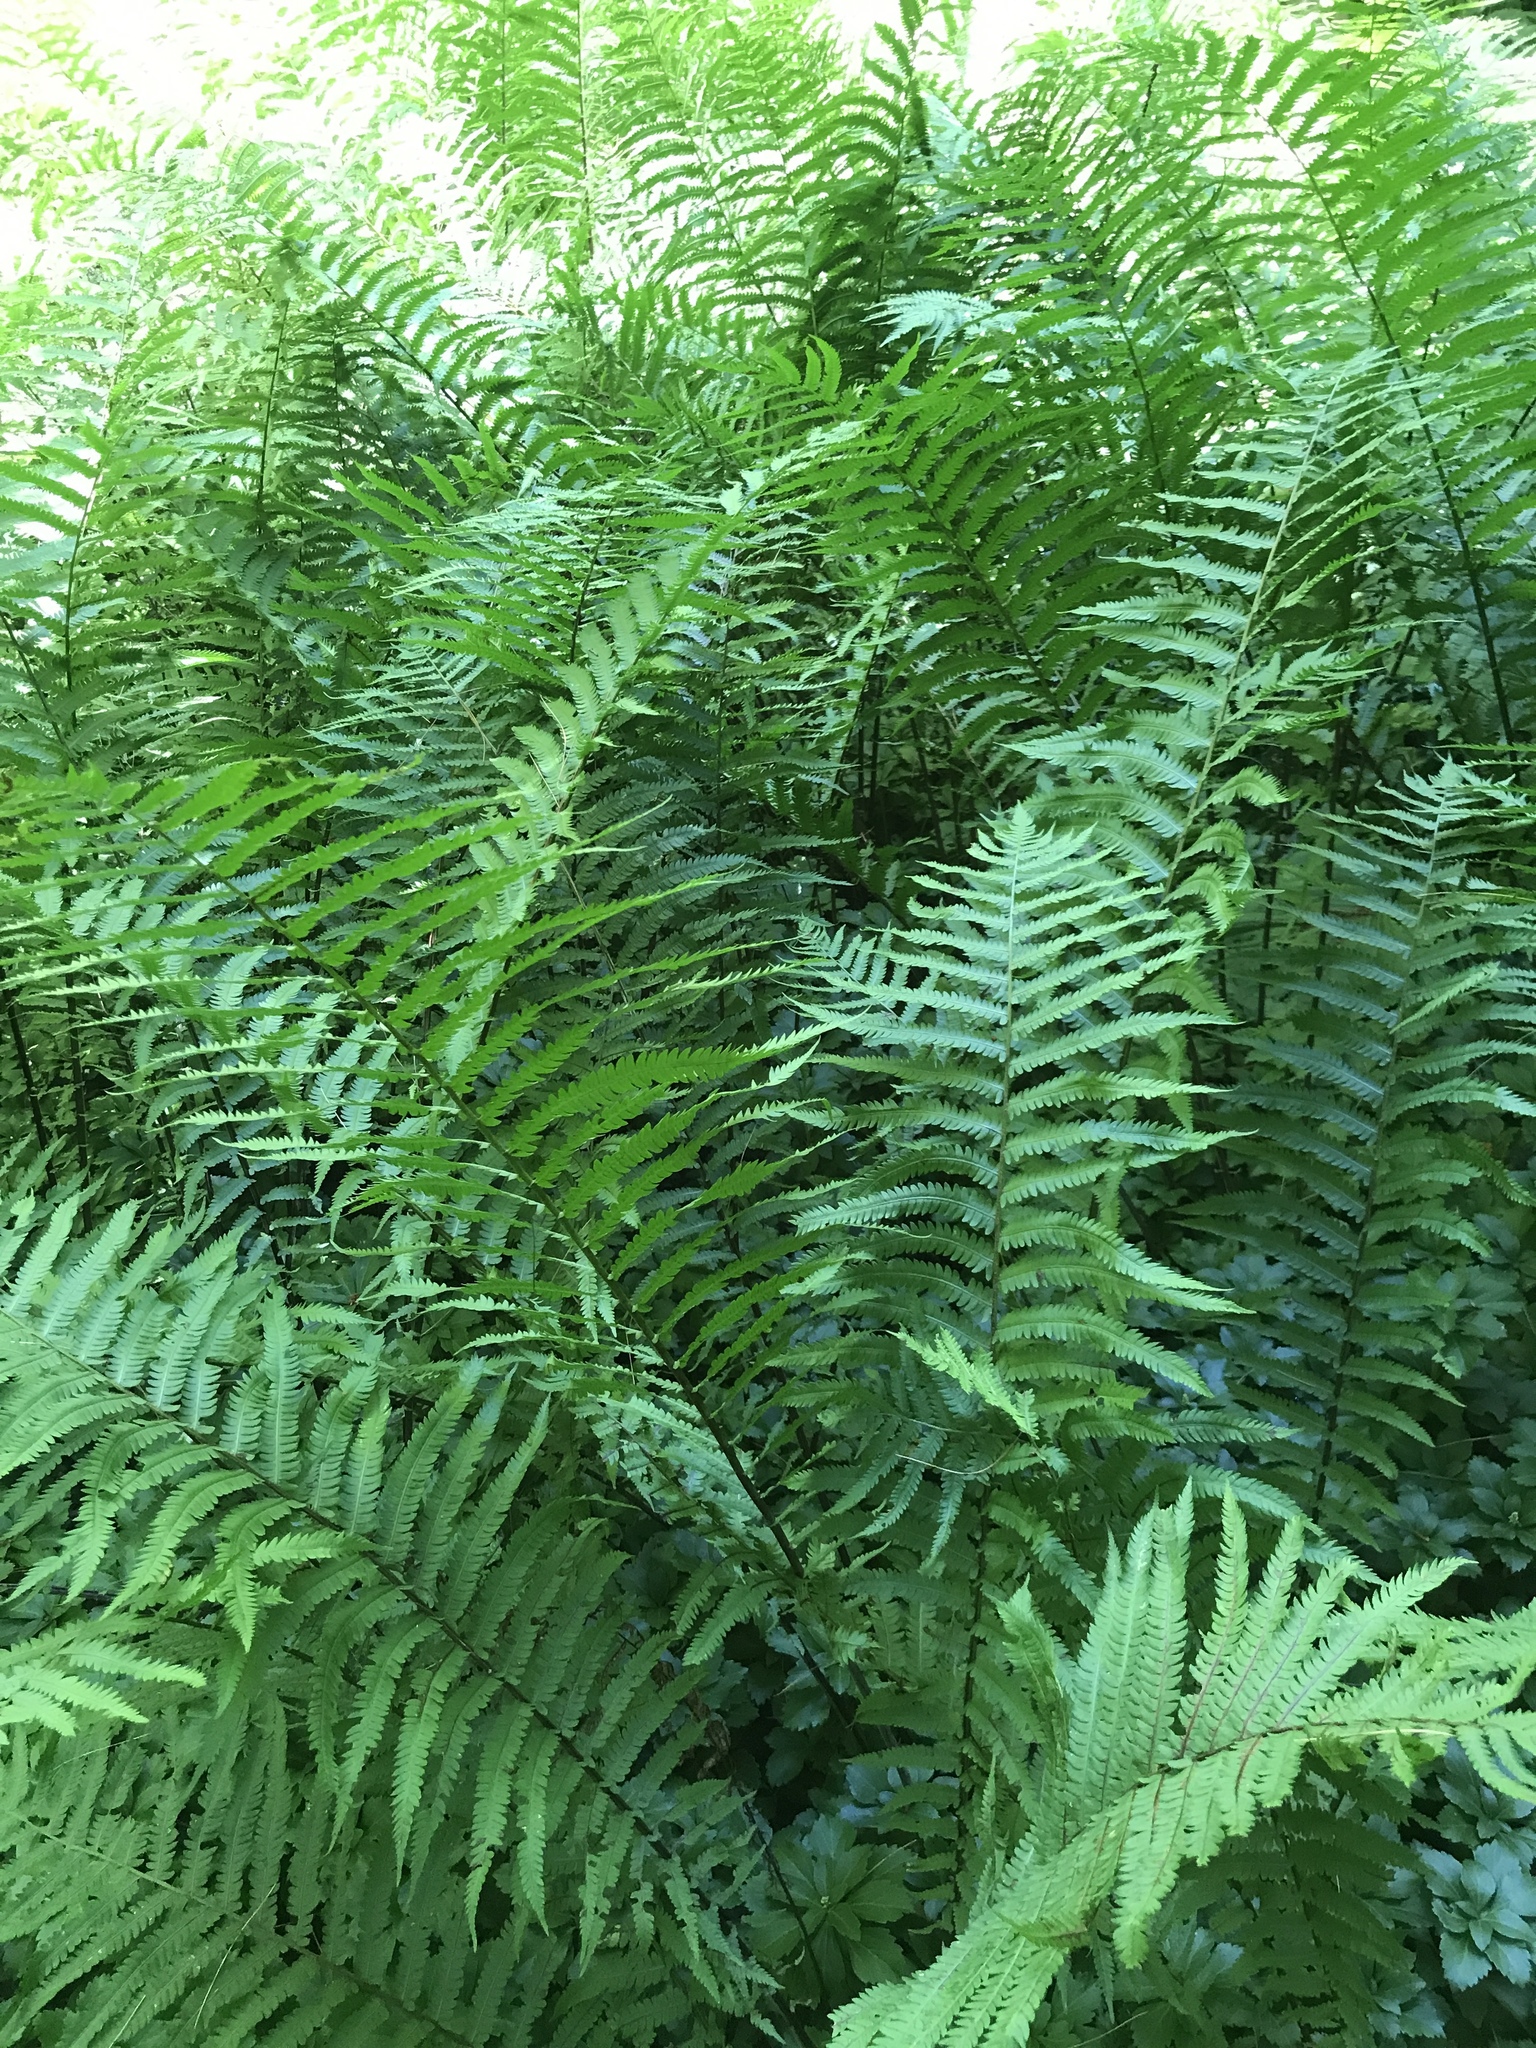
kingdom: Plantae
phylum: Tracheophyta
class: Polypodiopsida
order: Polypodiales
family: Onocleaceae
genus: Matteuccia
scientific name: Matteuccia struthiopteris
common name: Ostrich fern
